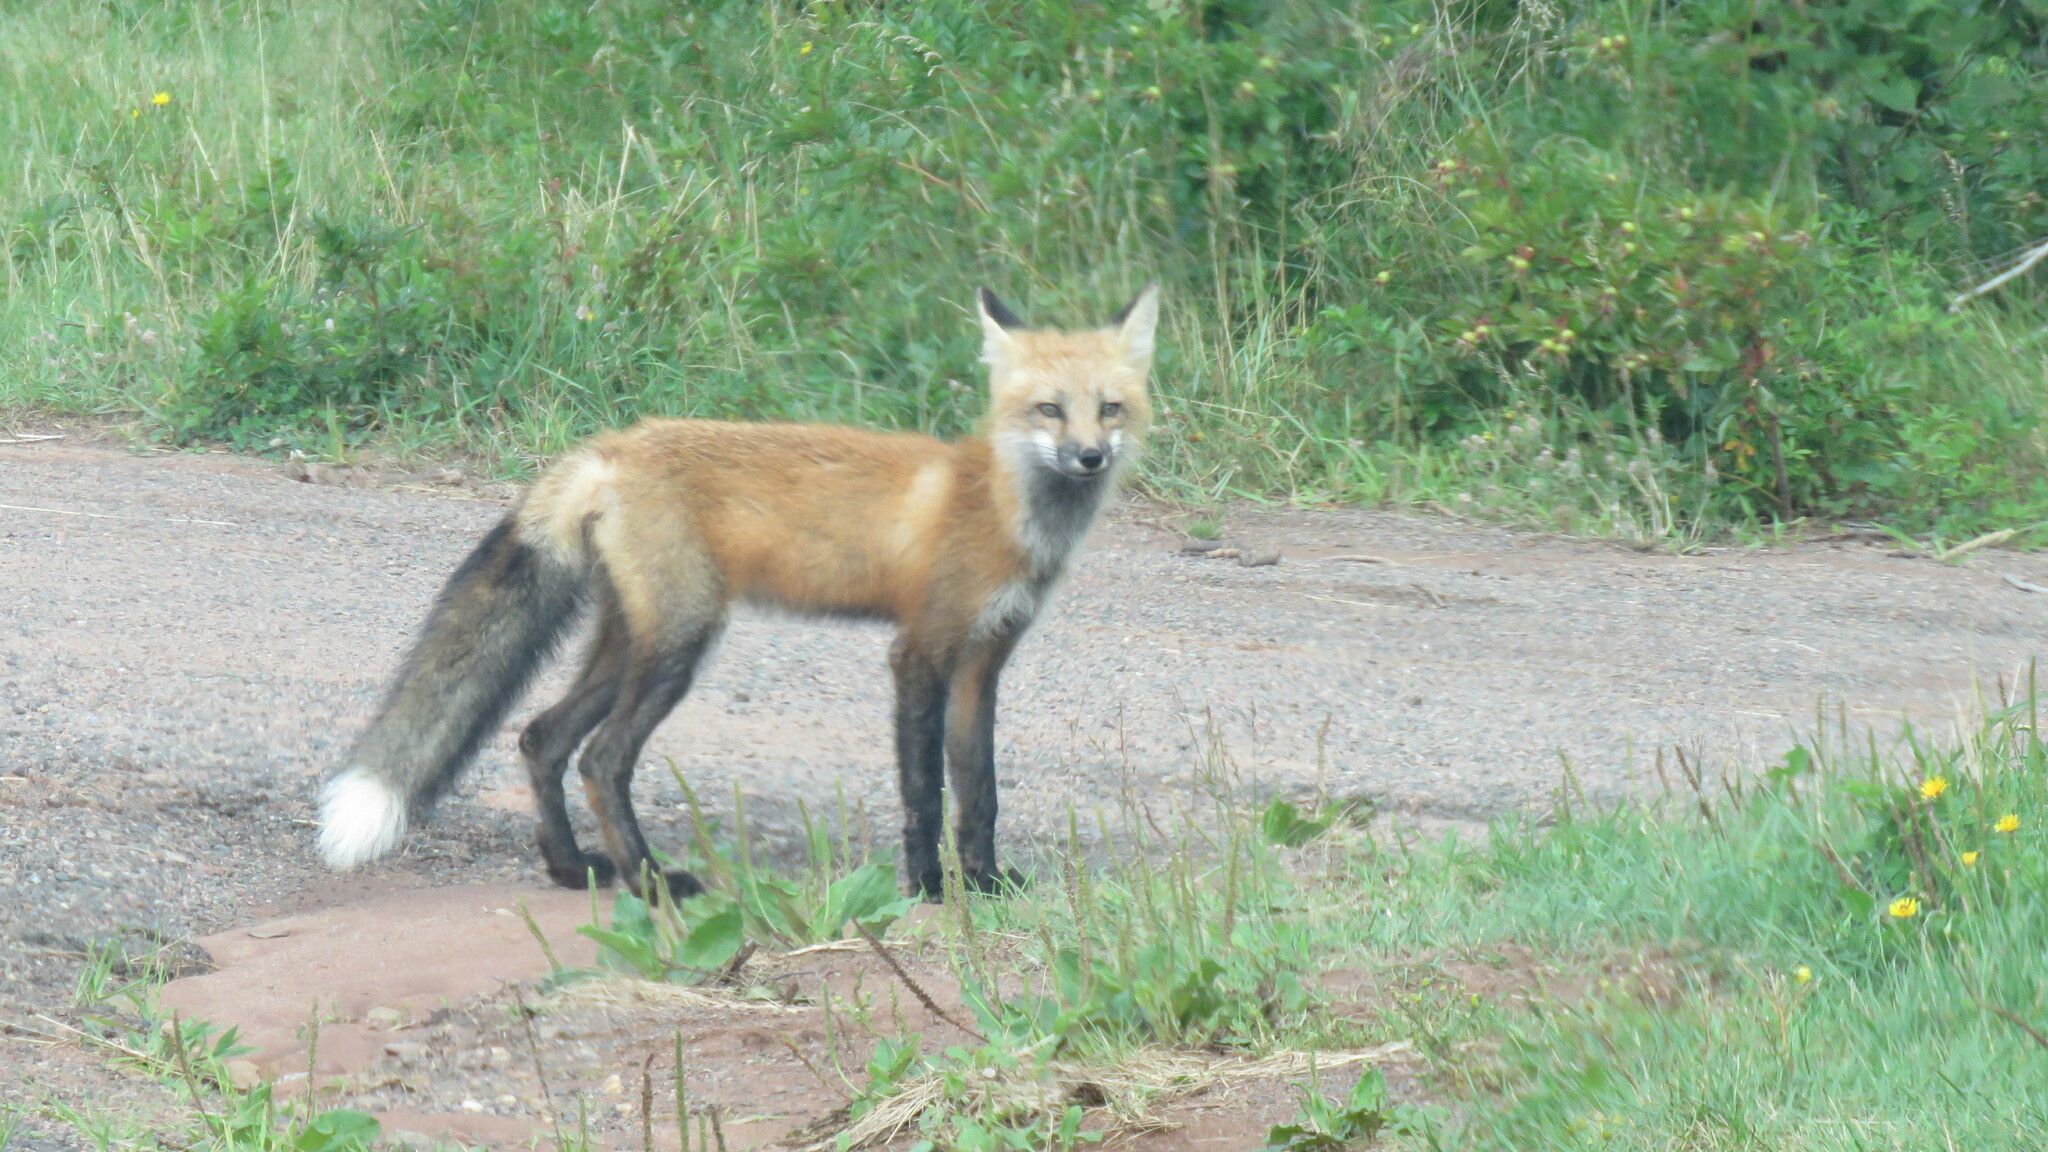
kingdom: Animalia
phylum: Chordata
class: Mammalia
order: Carnivora
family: Canidae
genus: Vulpes
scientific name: Vulpes vulpes
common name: Red fox
